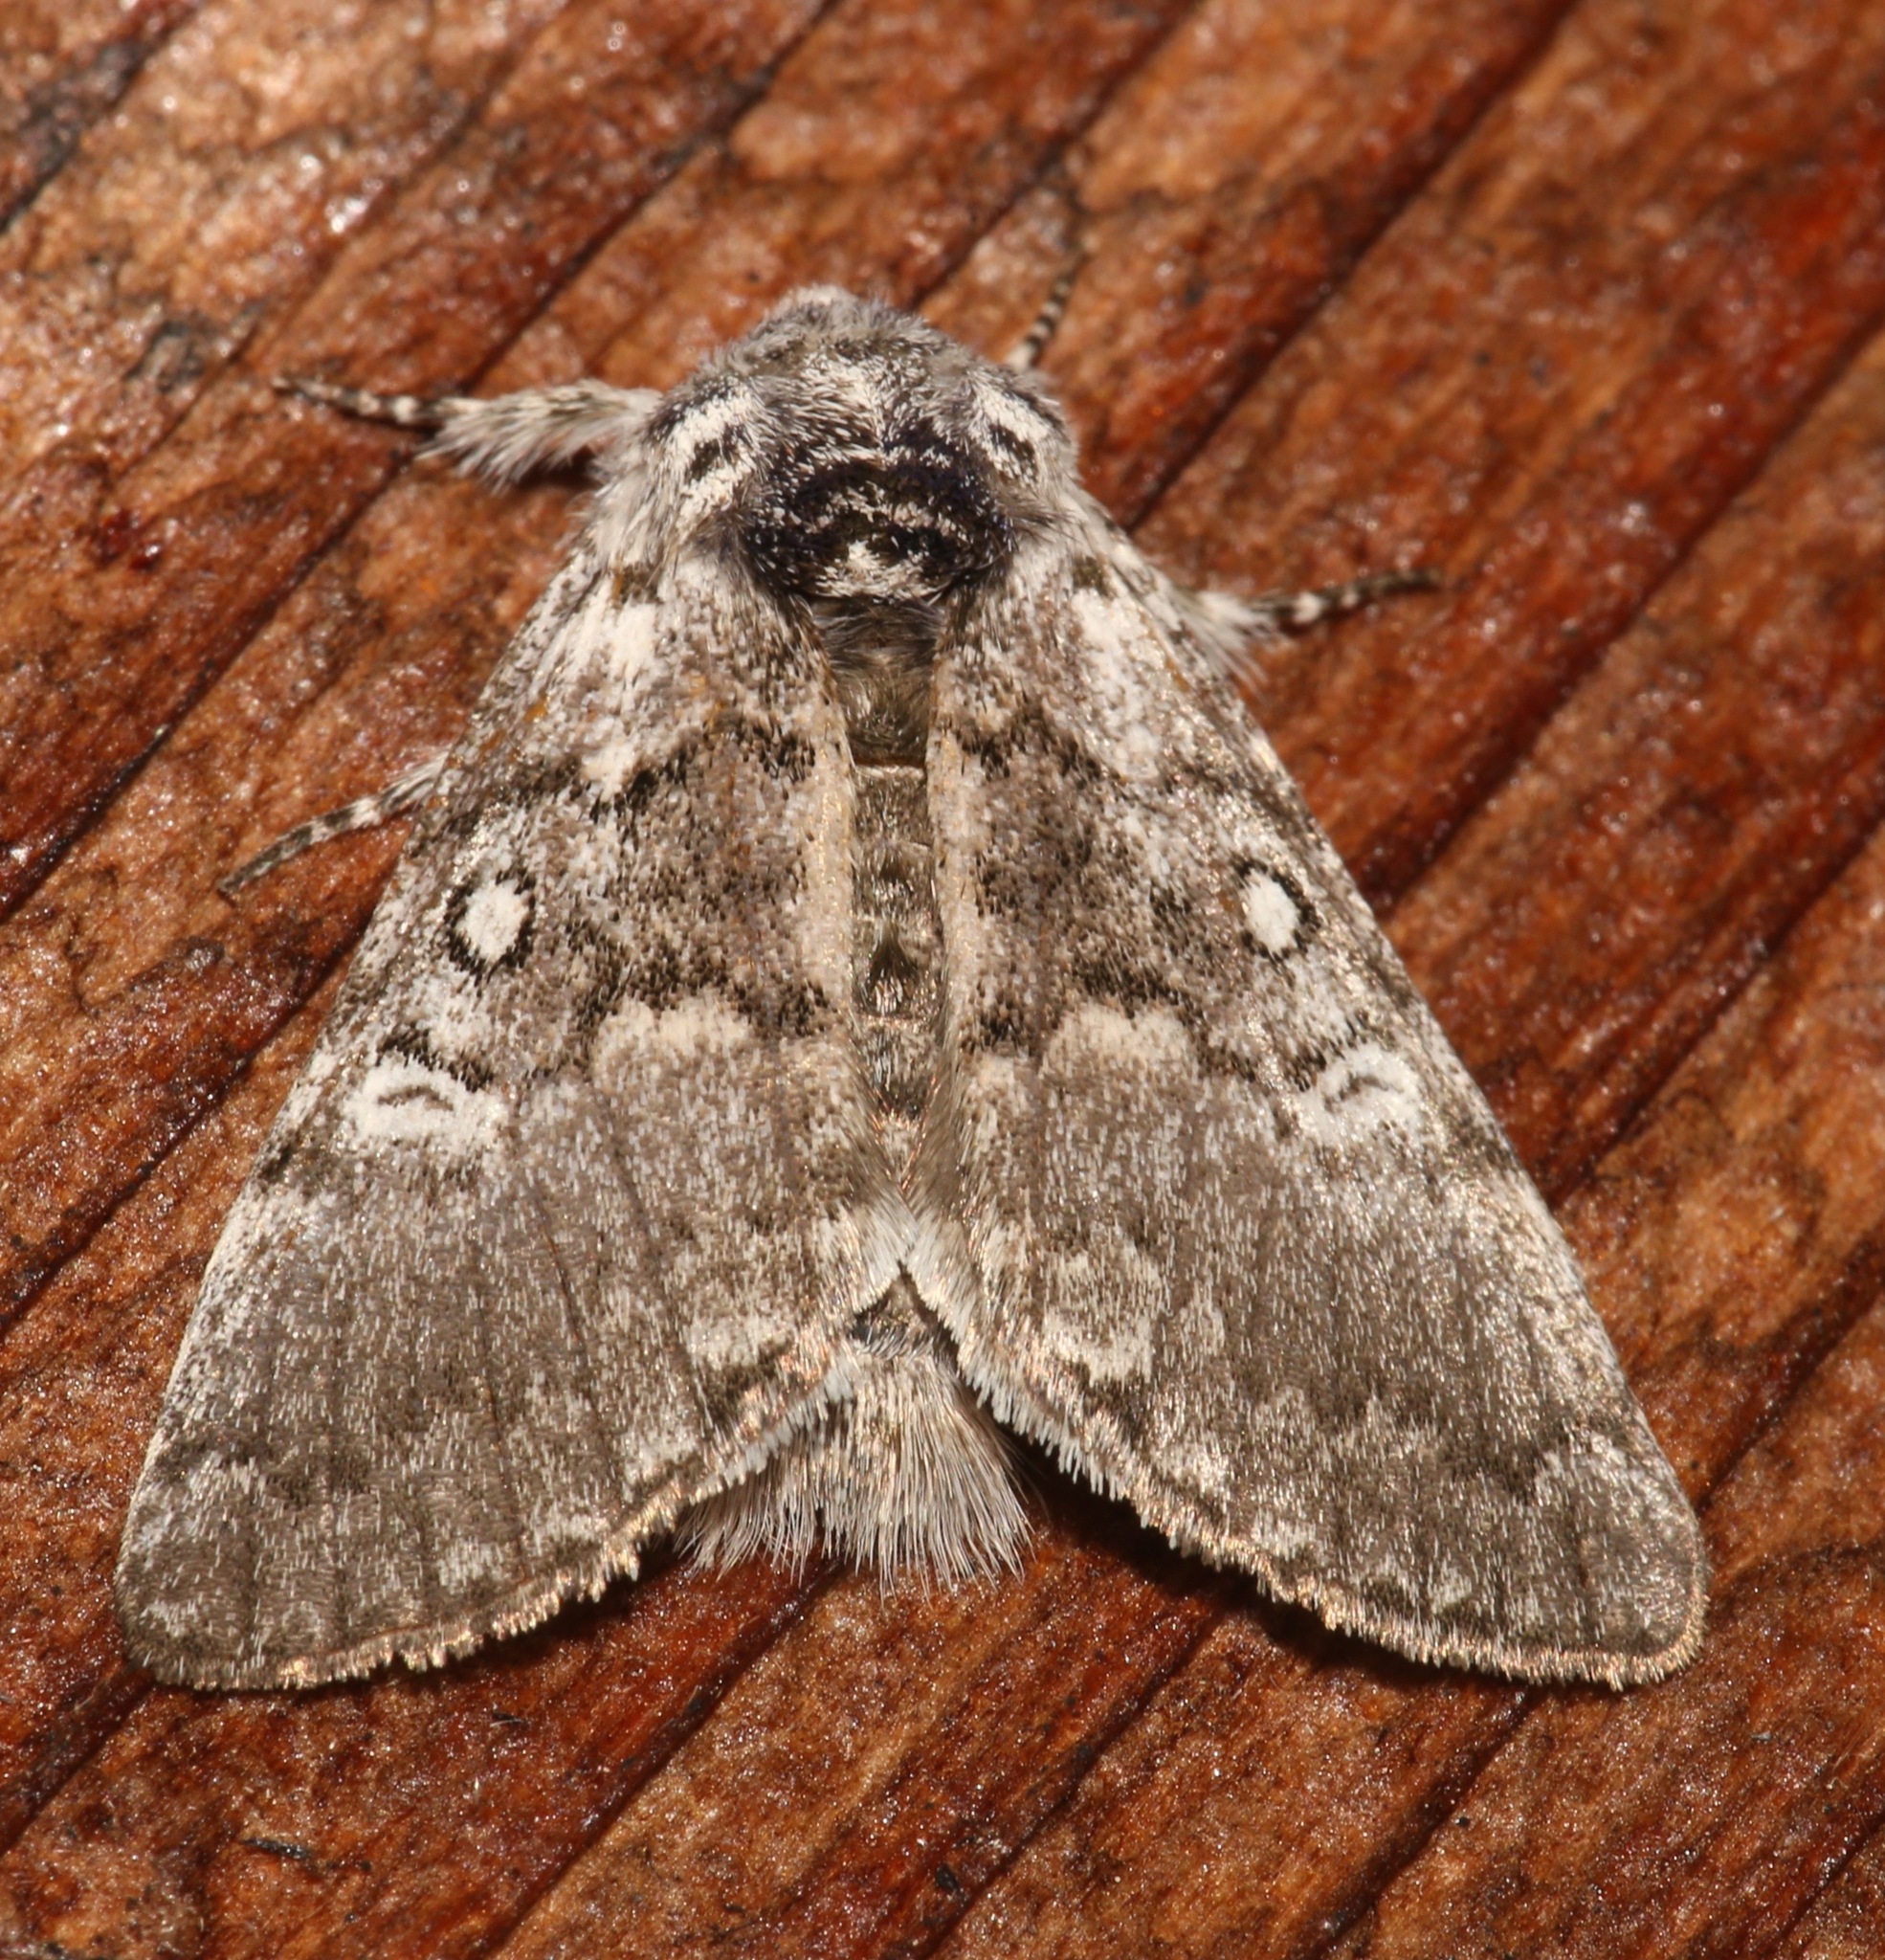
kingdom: Animalia
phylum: Arthropoda
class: Insecta
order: Lepidoptera
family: Noctuidae
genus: Colocasia
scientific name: Colocasia propinquilinea
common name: Close-banded demas
